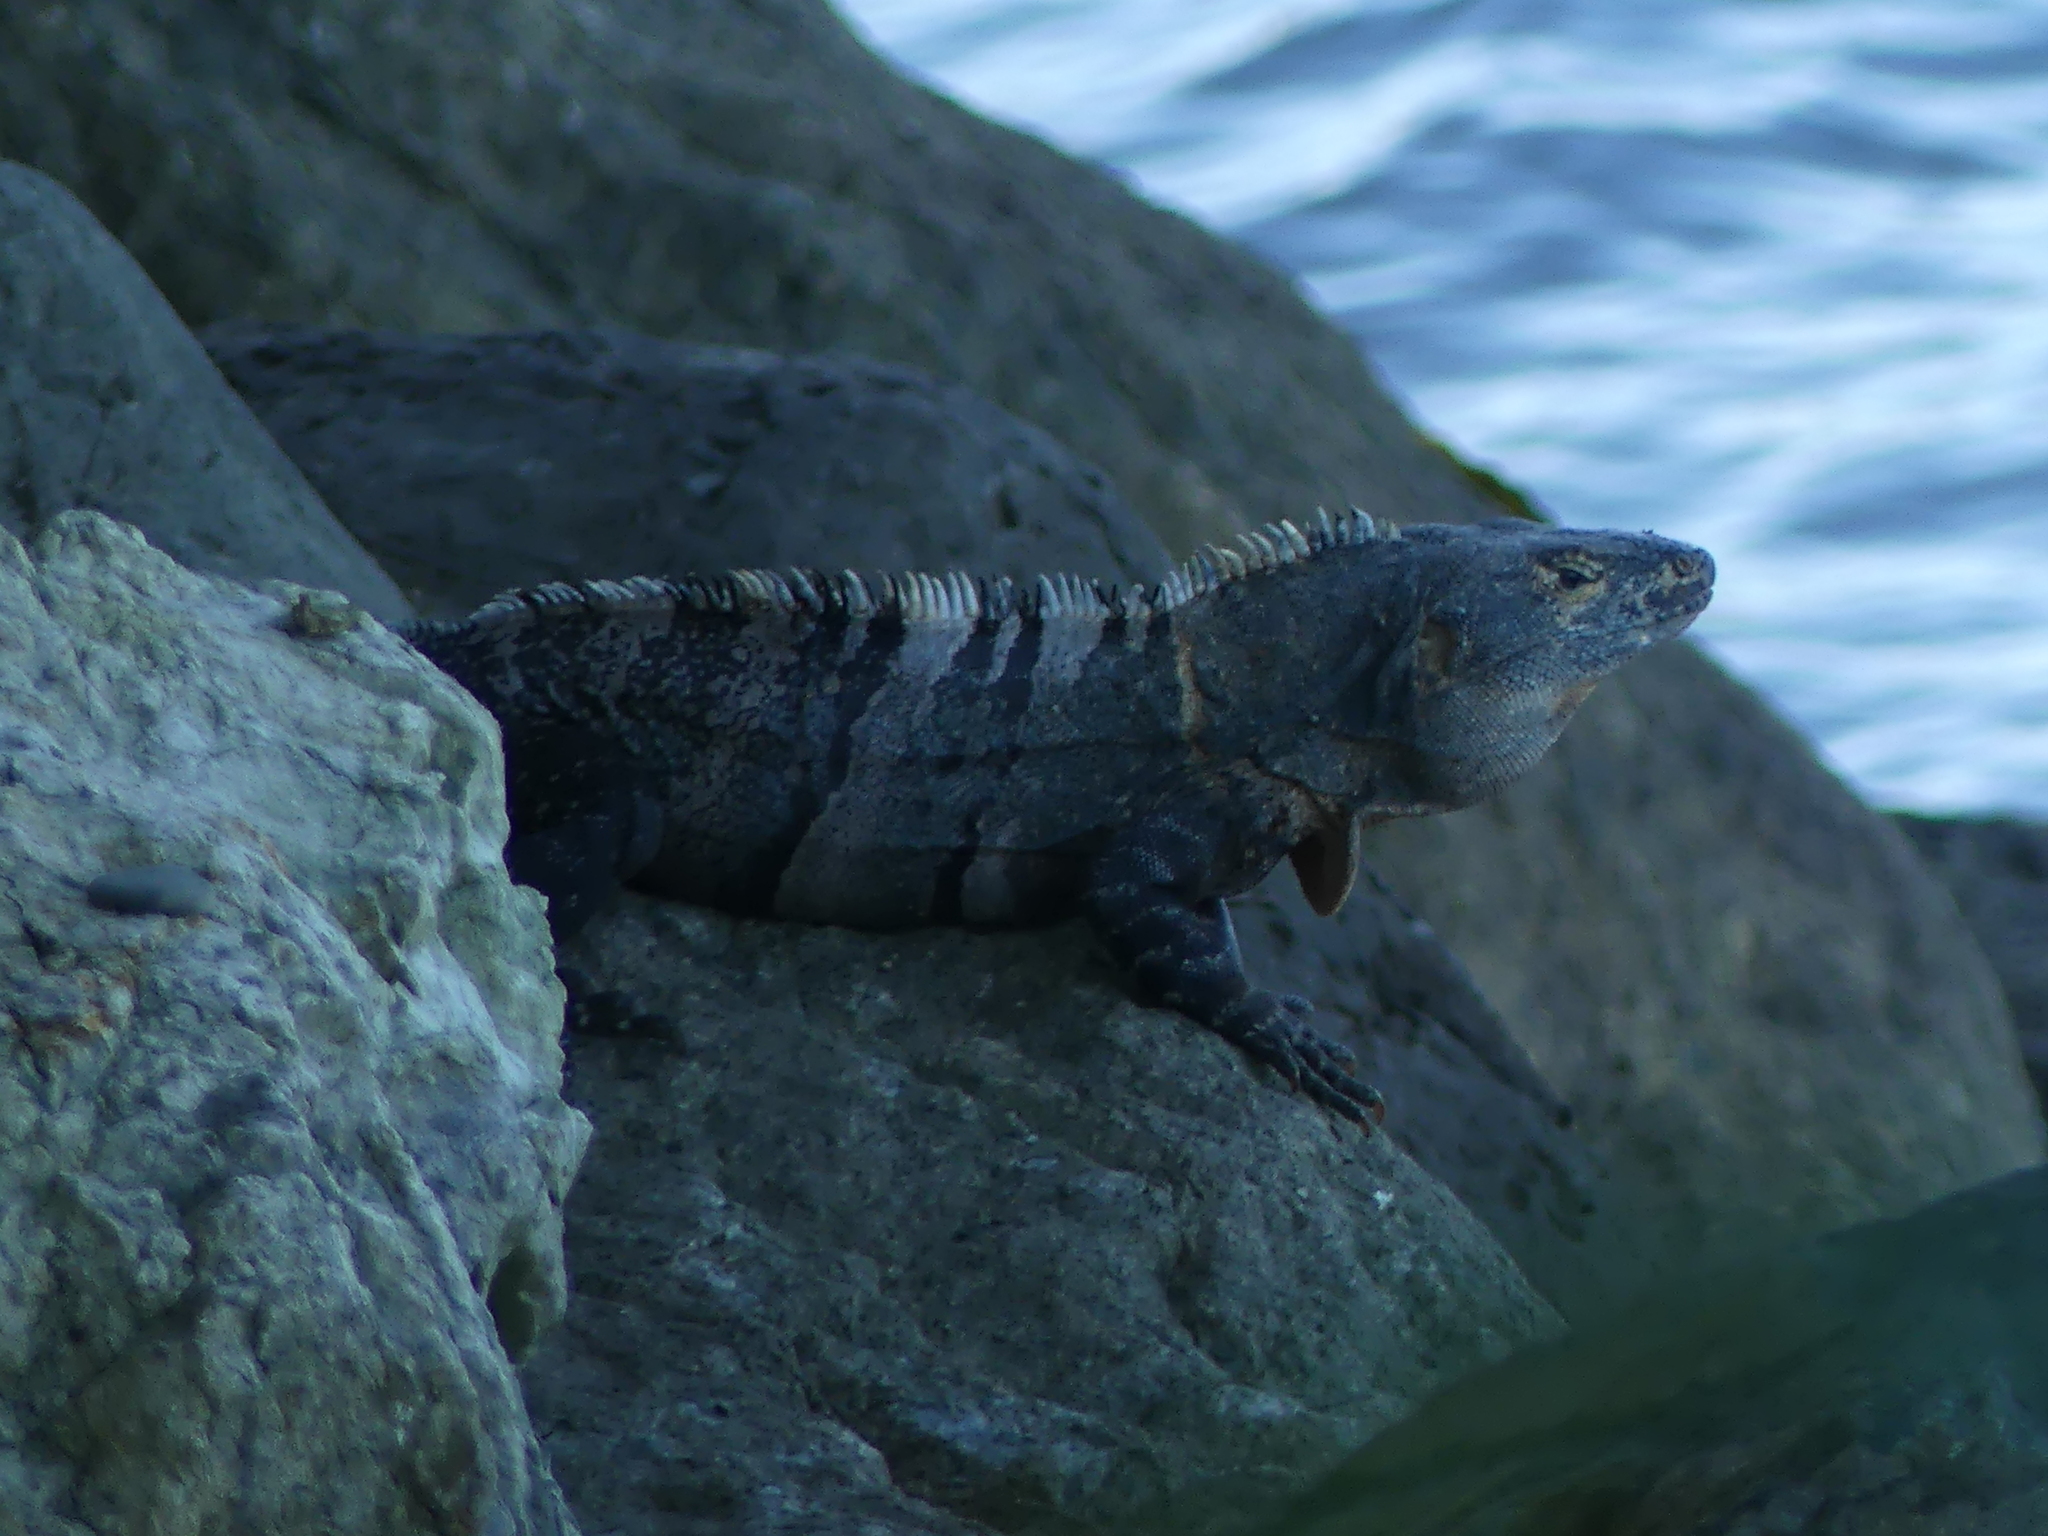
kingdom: Animalia
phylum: Chordata
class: Squamata
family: Iguanidae
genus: Ctenosaura
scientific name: Ctenosaura similis
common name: Black spiny-tailed iguana
